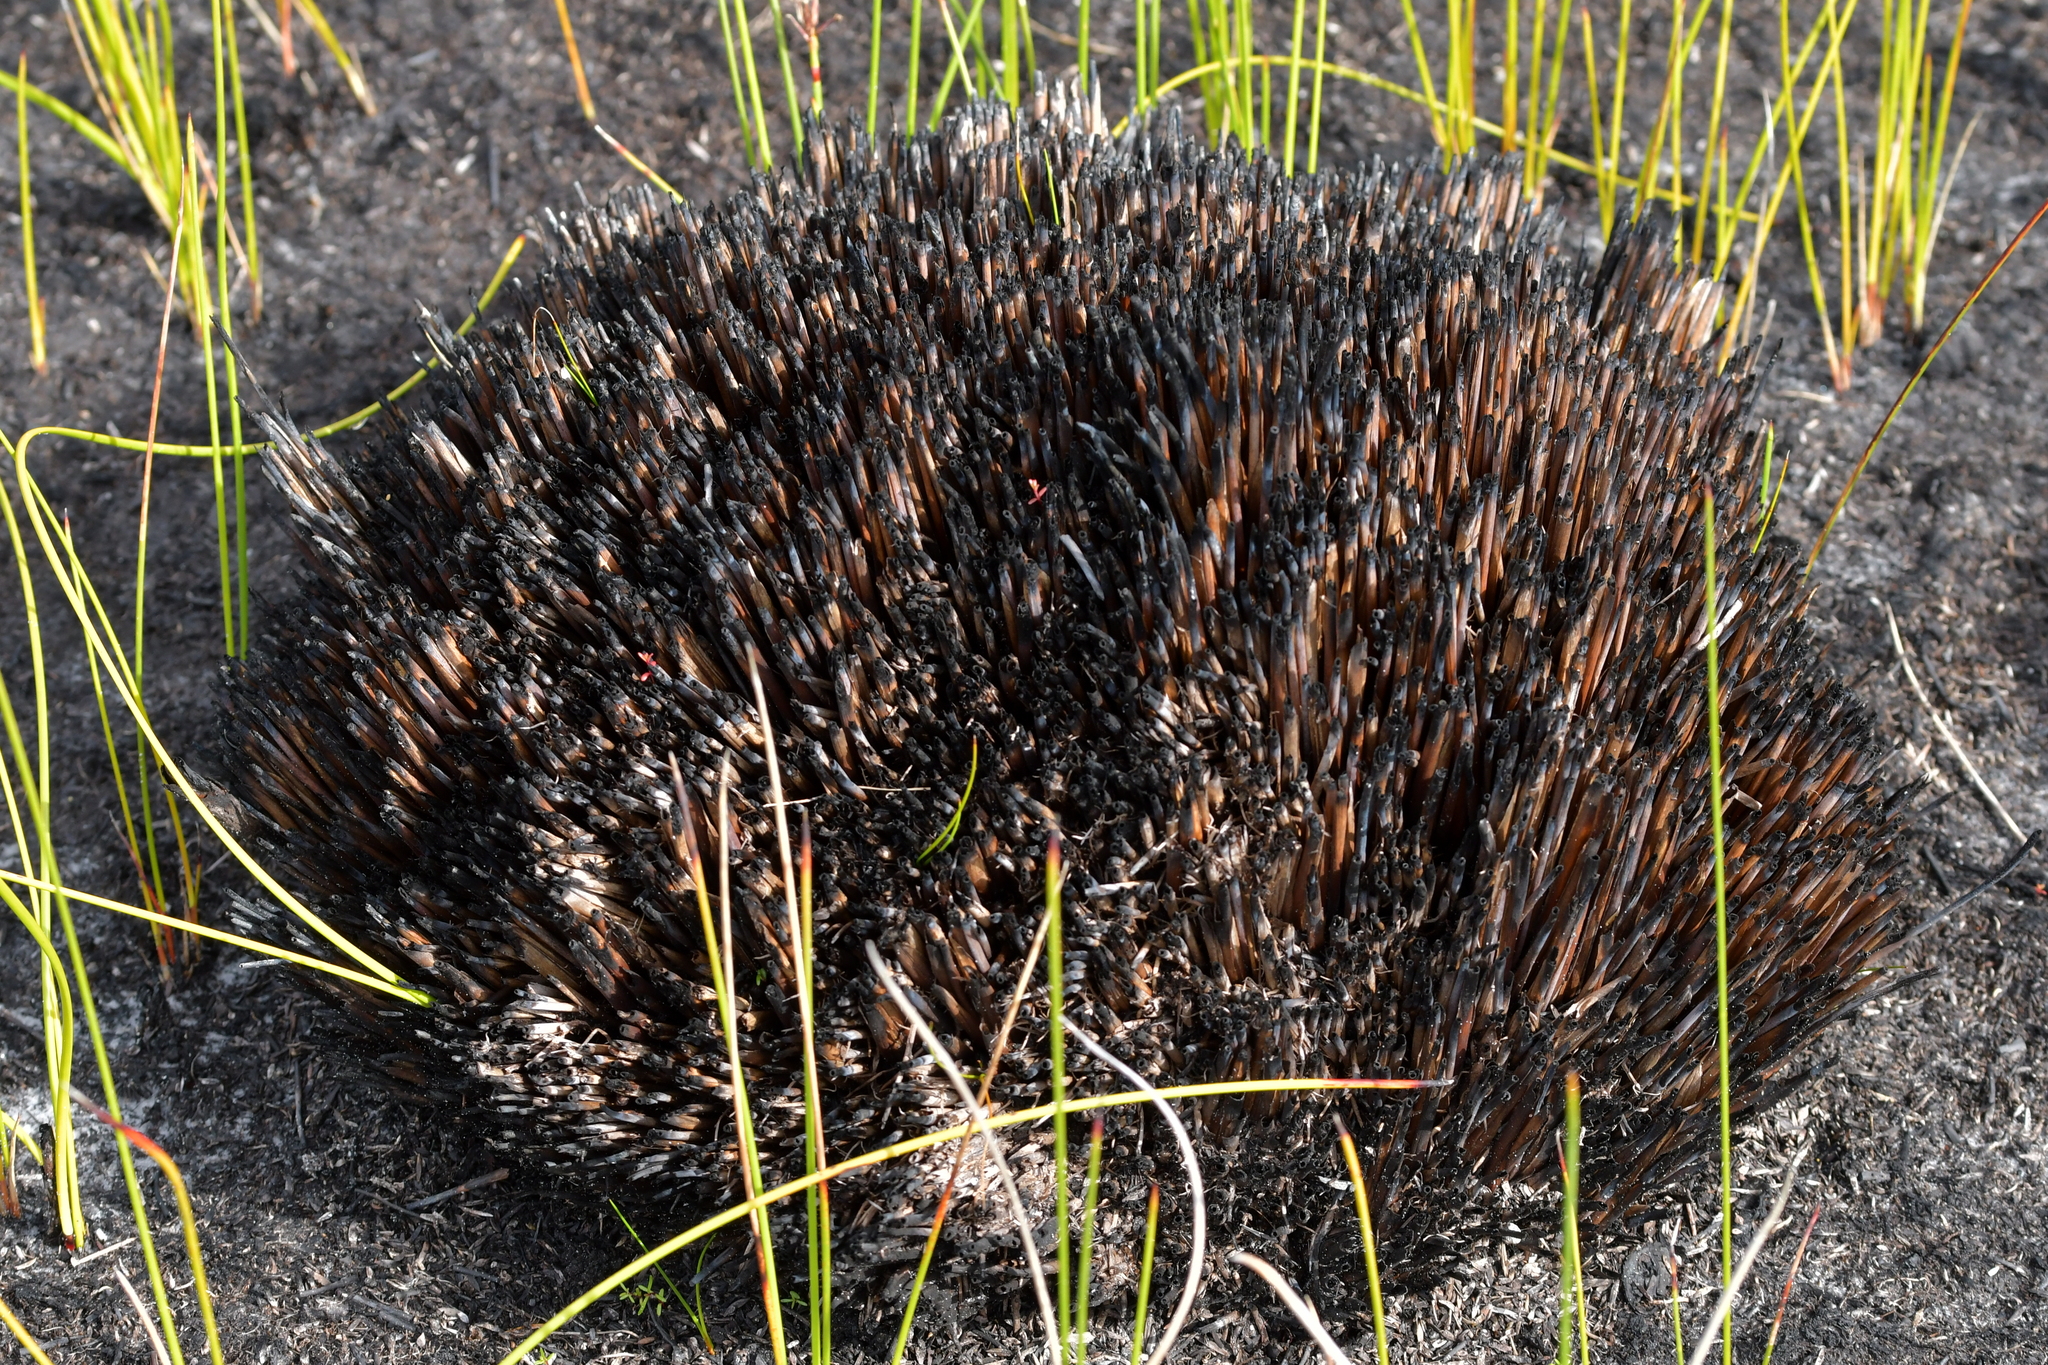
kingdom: Plantae
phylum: Tracheophyta
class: Liliopsida
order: Poales
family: Cyperaceae
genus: Lepidosperma
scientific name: Lepidosperma
